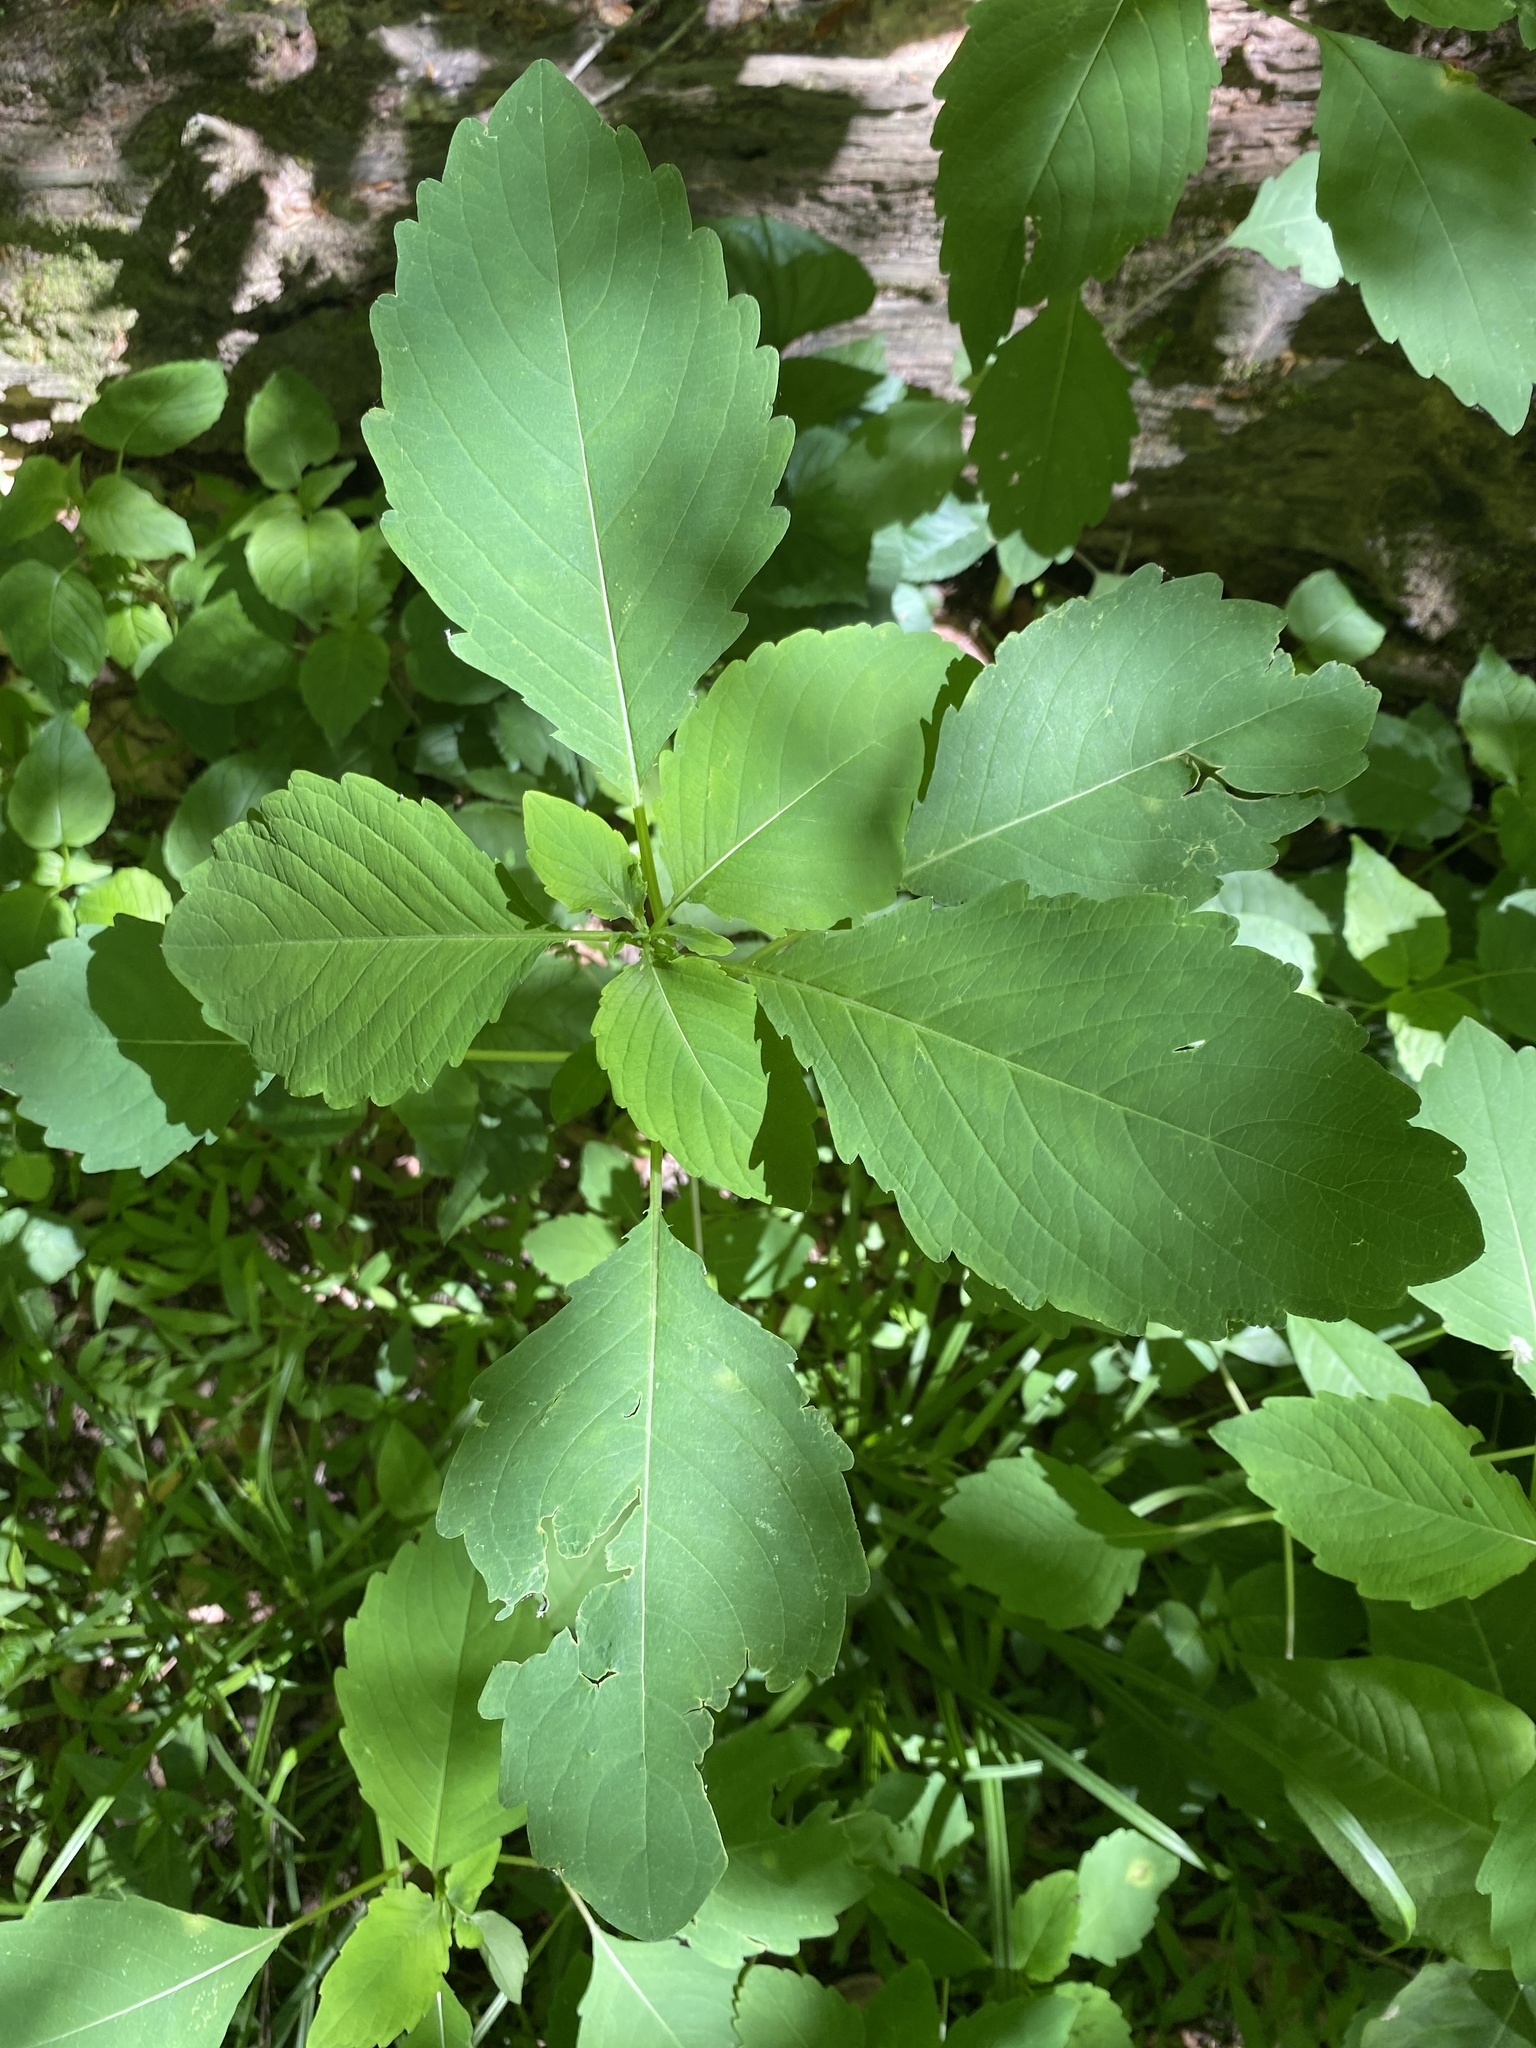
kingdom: Plantae
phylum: Tracheophyta
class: Magnoliopsida
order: Ericales
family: Balsaminaceae
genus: Impatiens
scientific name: Impatiens capensis
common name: Orange balsam
